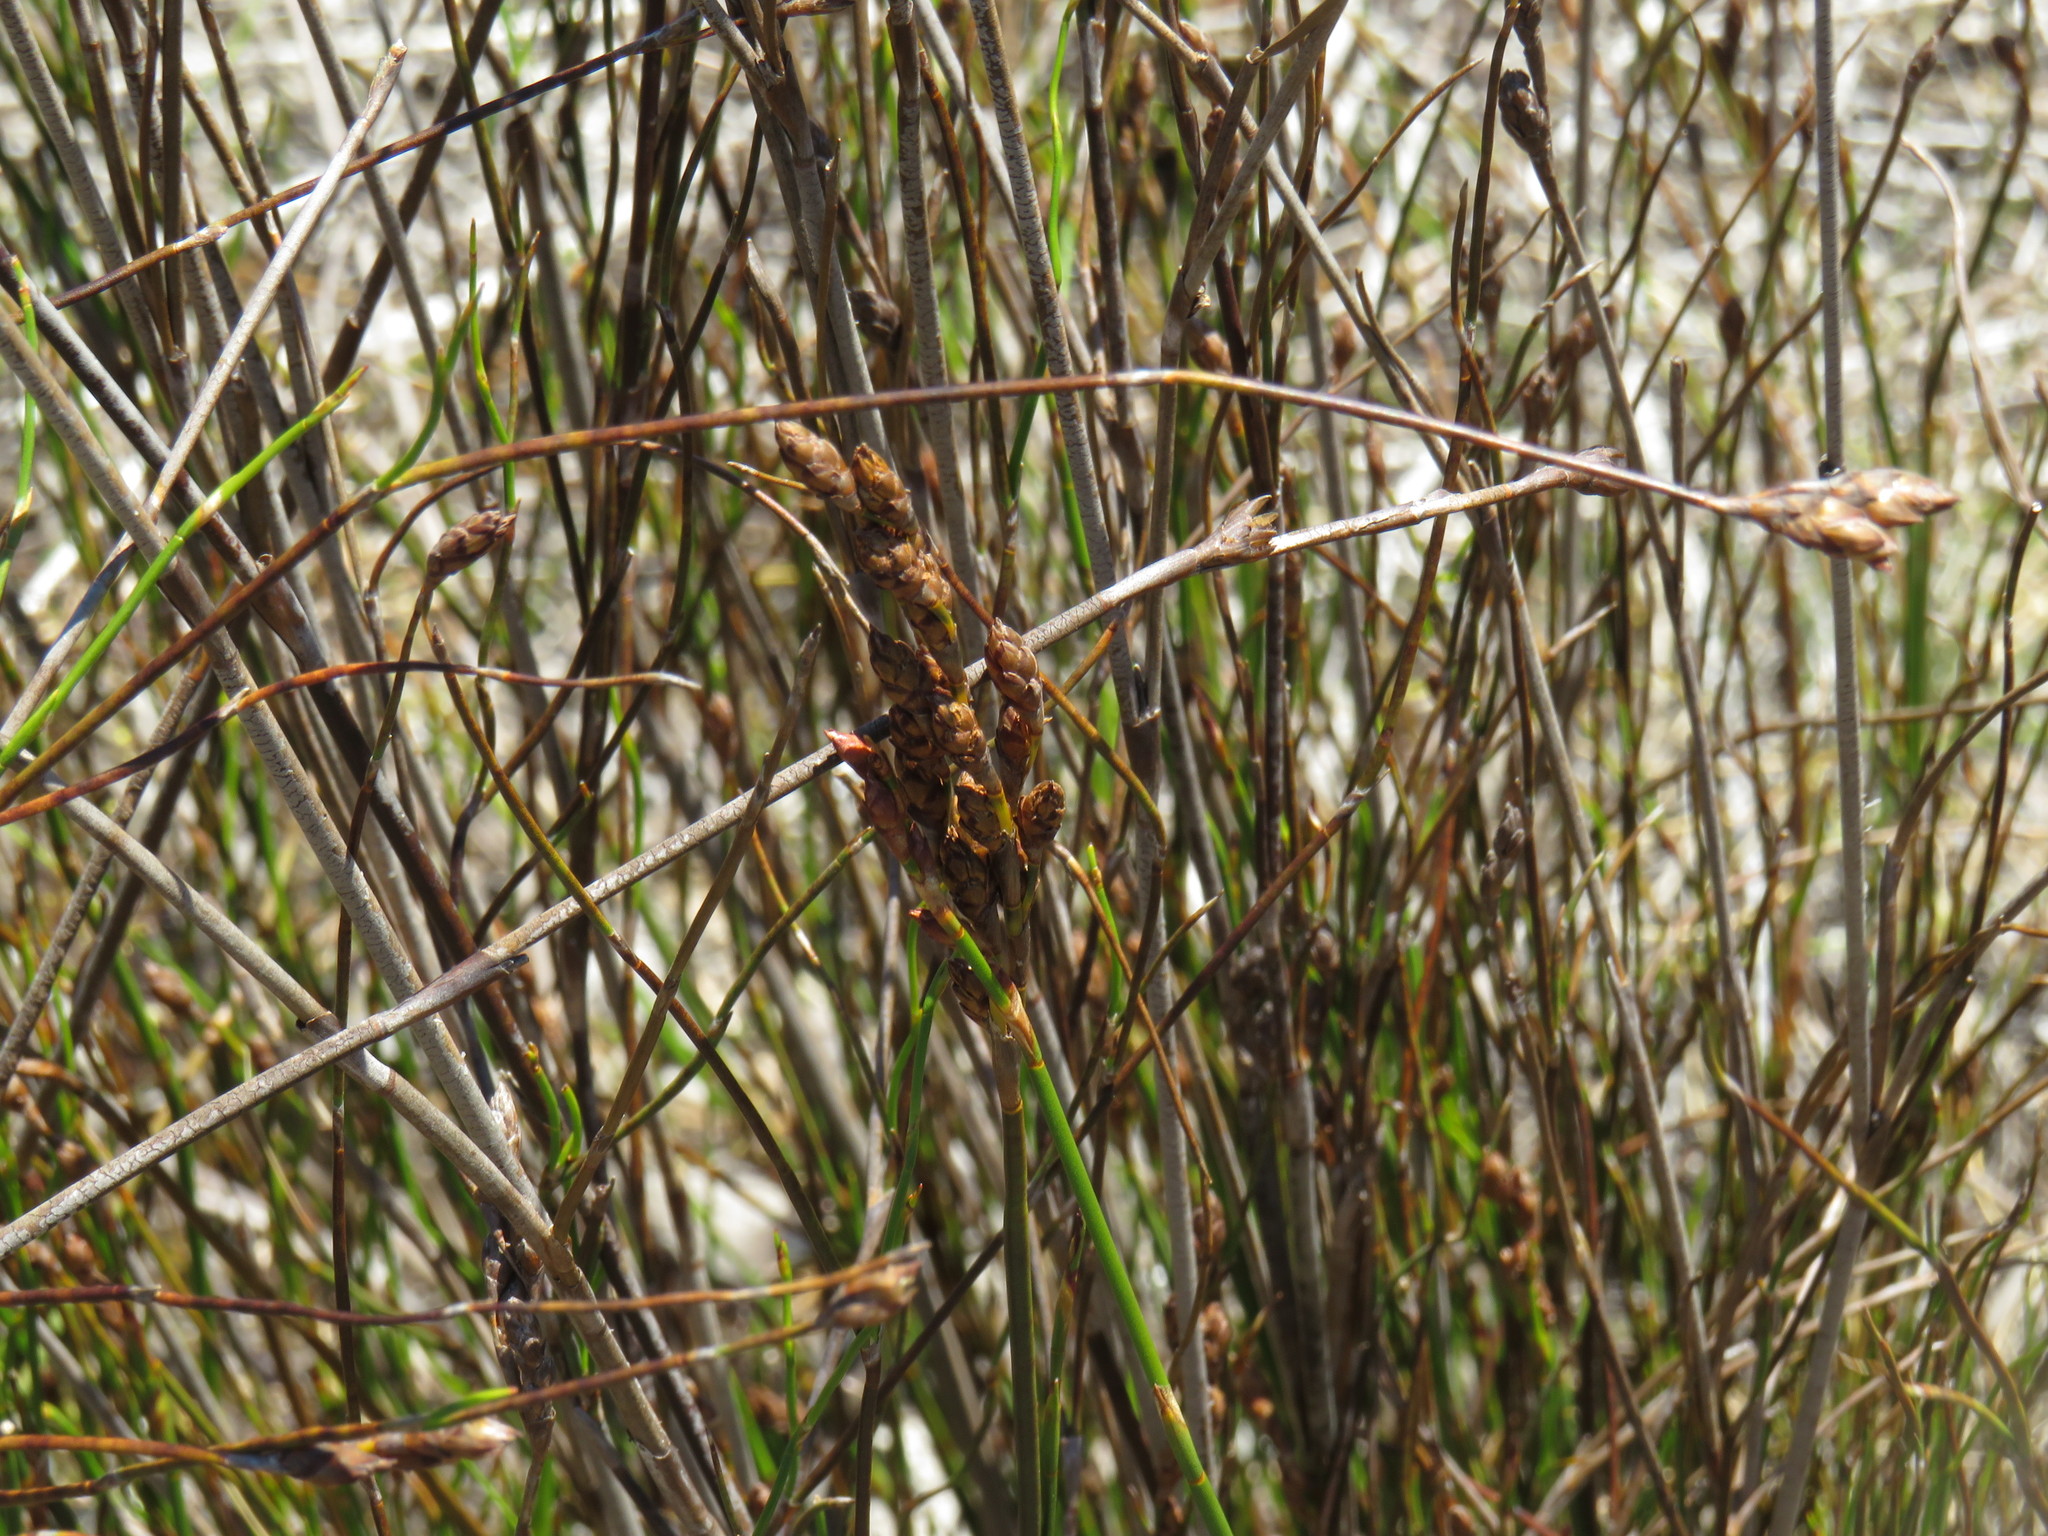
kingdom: Plantae
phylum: Tracheophyta
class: Liliopsida
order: Poales
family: Restionaceae
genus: Restio
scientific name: Restio bifurcus
